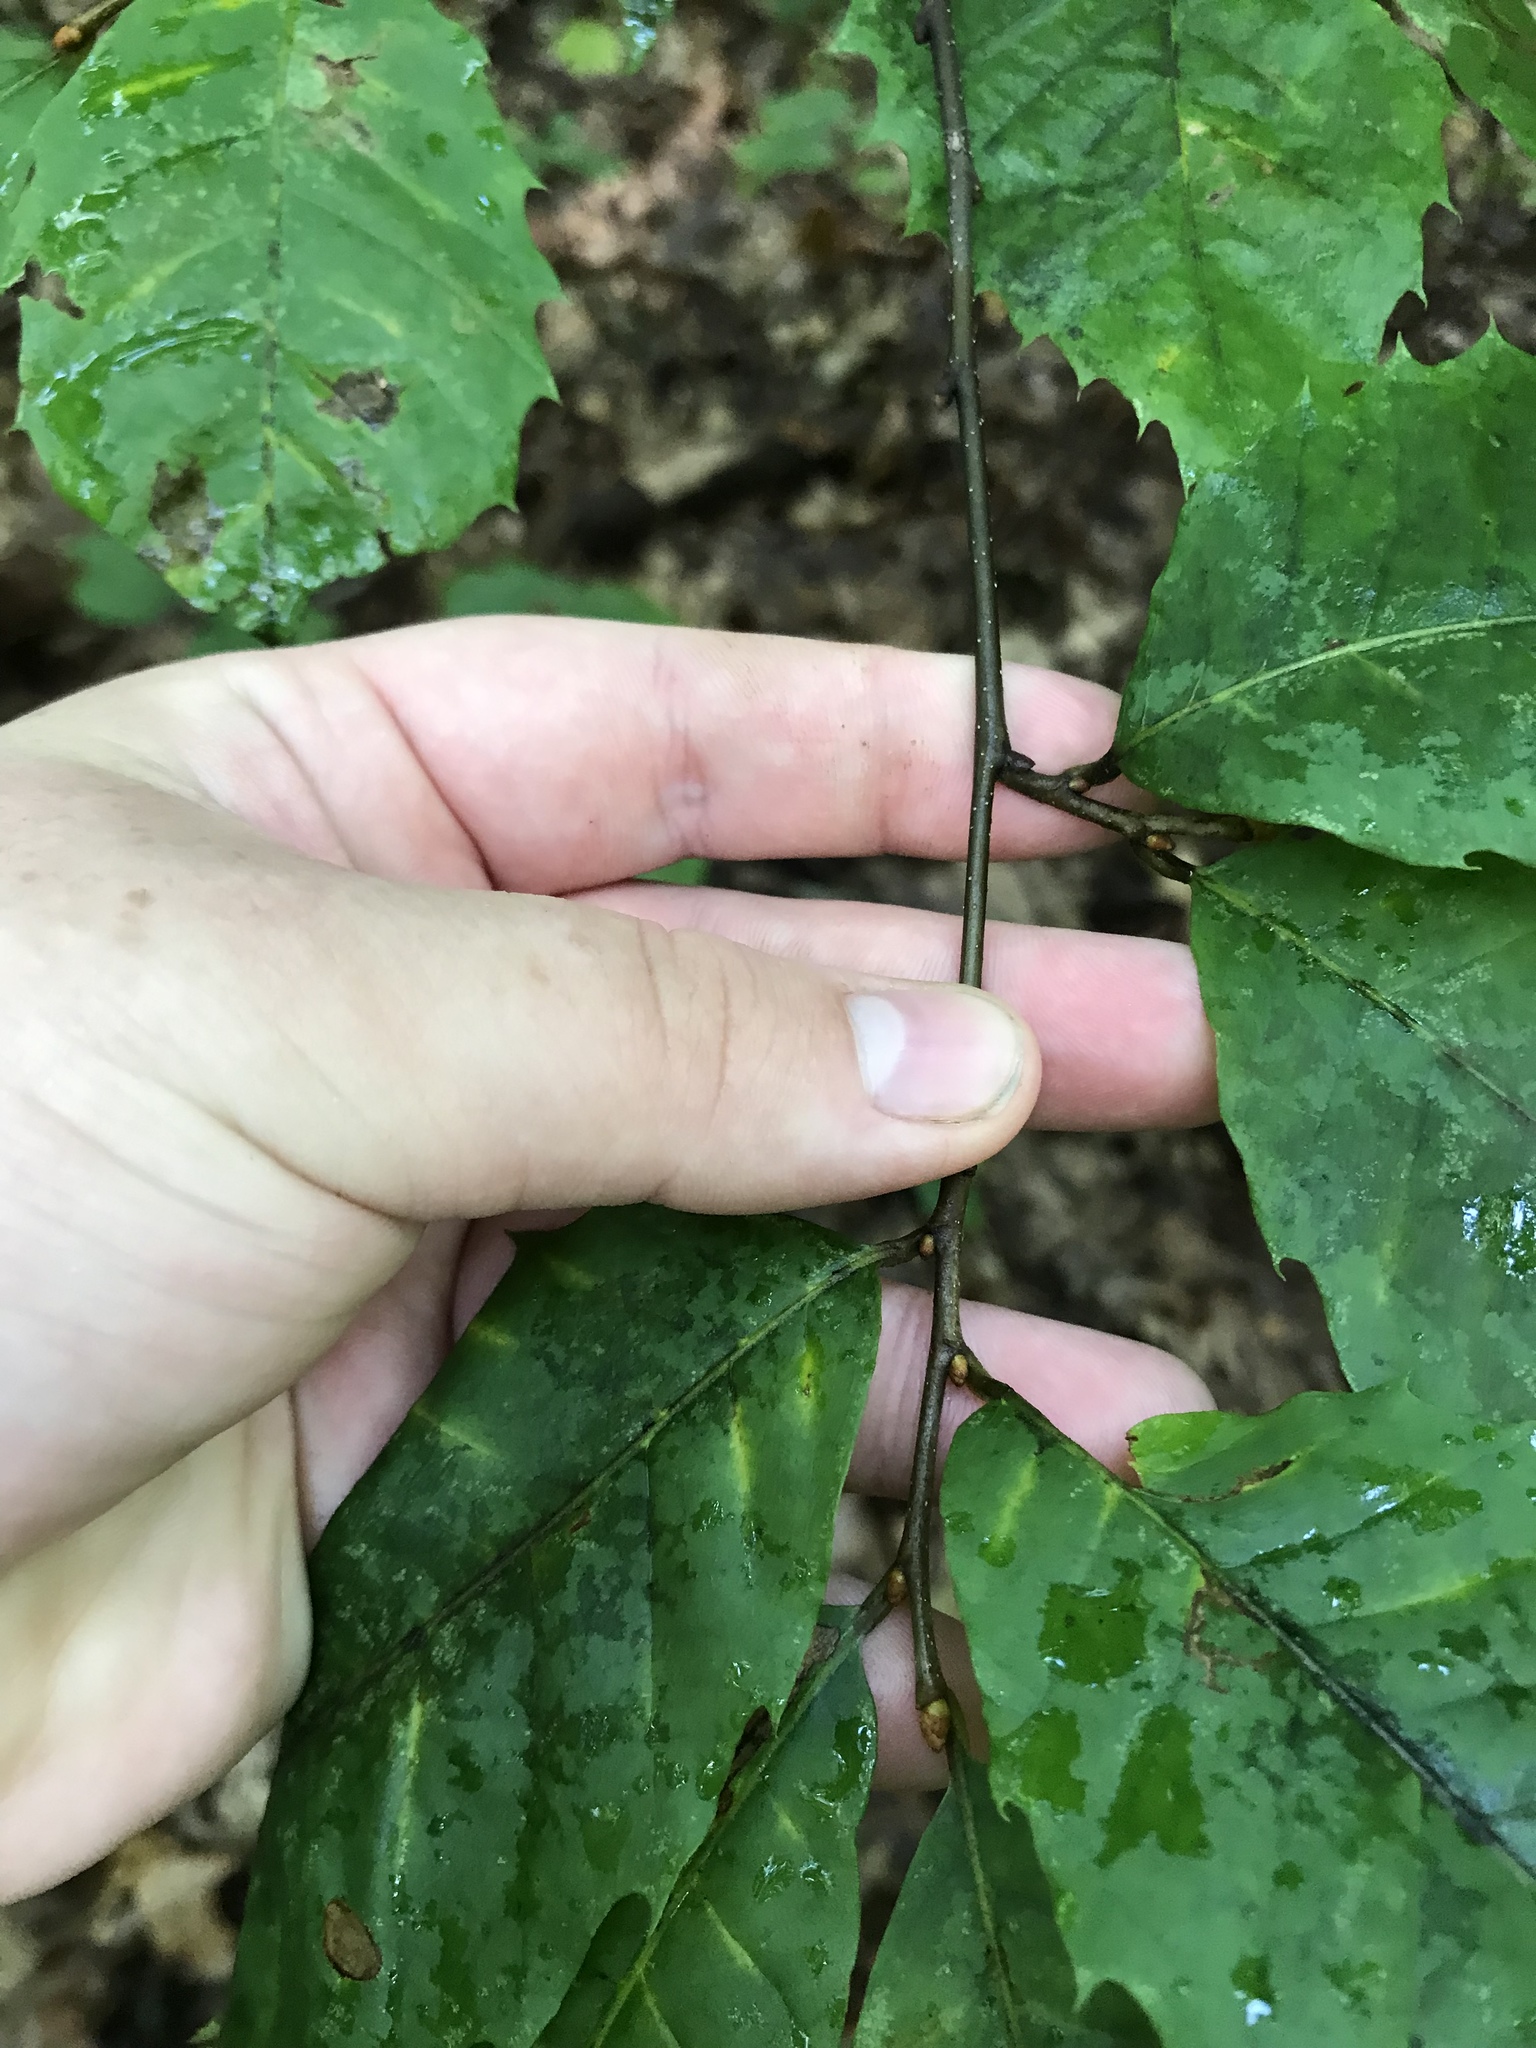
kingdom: Plantae
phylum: Tracheophyta
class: Magnoliopsida
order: Fagales
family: Fagaceae
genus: Castanea
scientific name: Castanea dentata
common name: American chestnut
